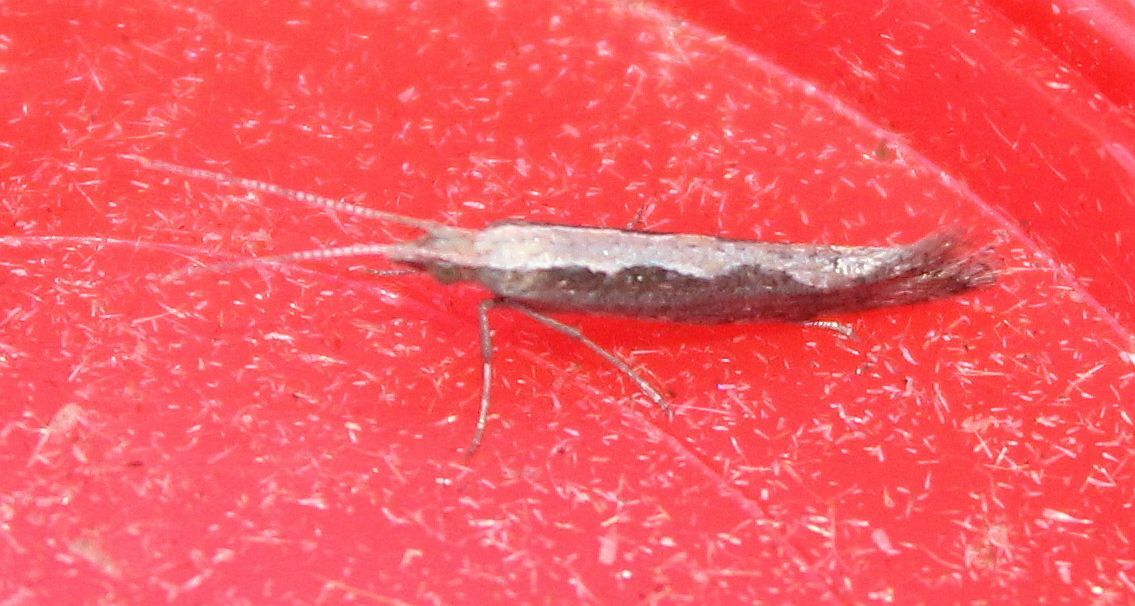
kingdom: Animalia
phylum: Arthropoda
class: Insecta
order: Lepidoptera
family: Plutellidae
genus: Plutella
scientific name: Plutella xylostella
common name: Diamond-back moth
